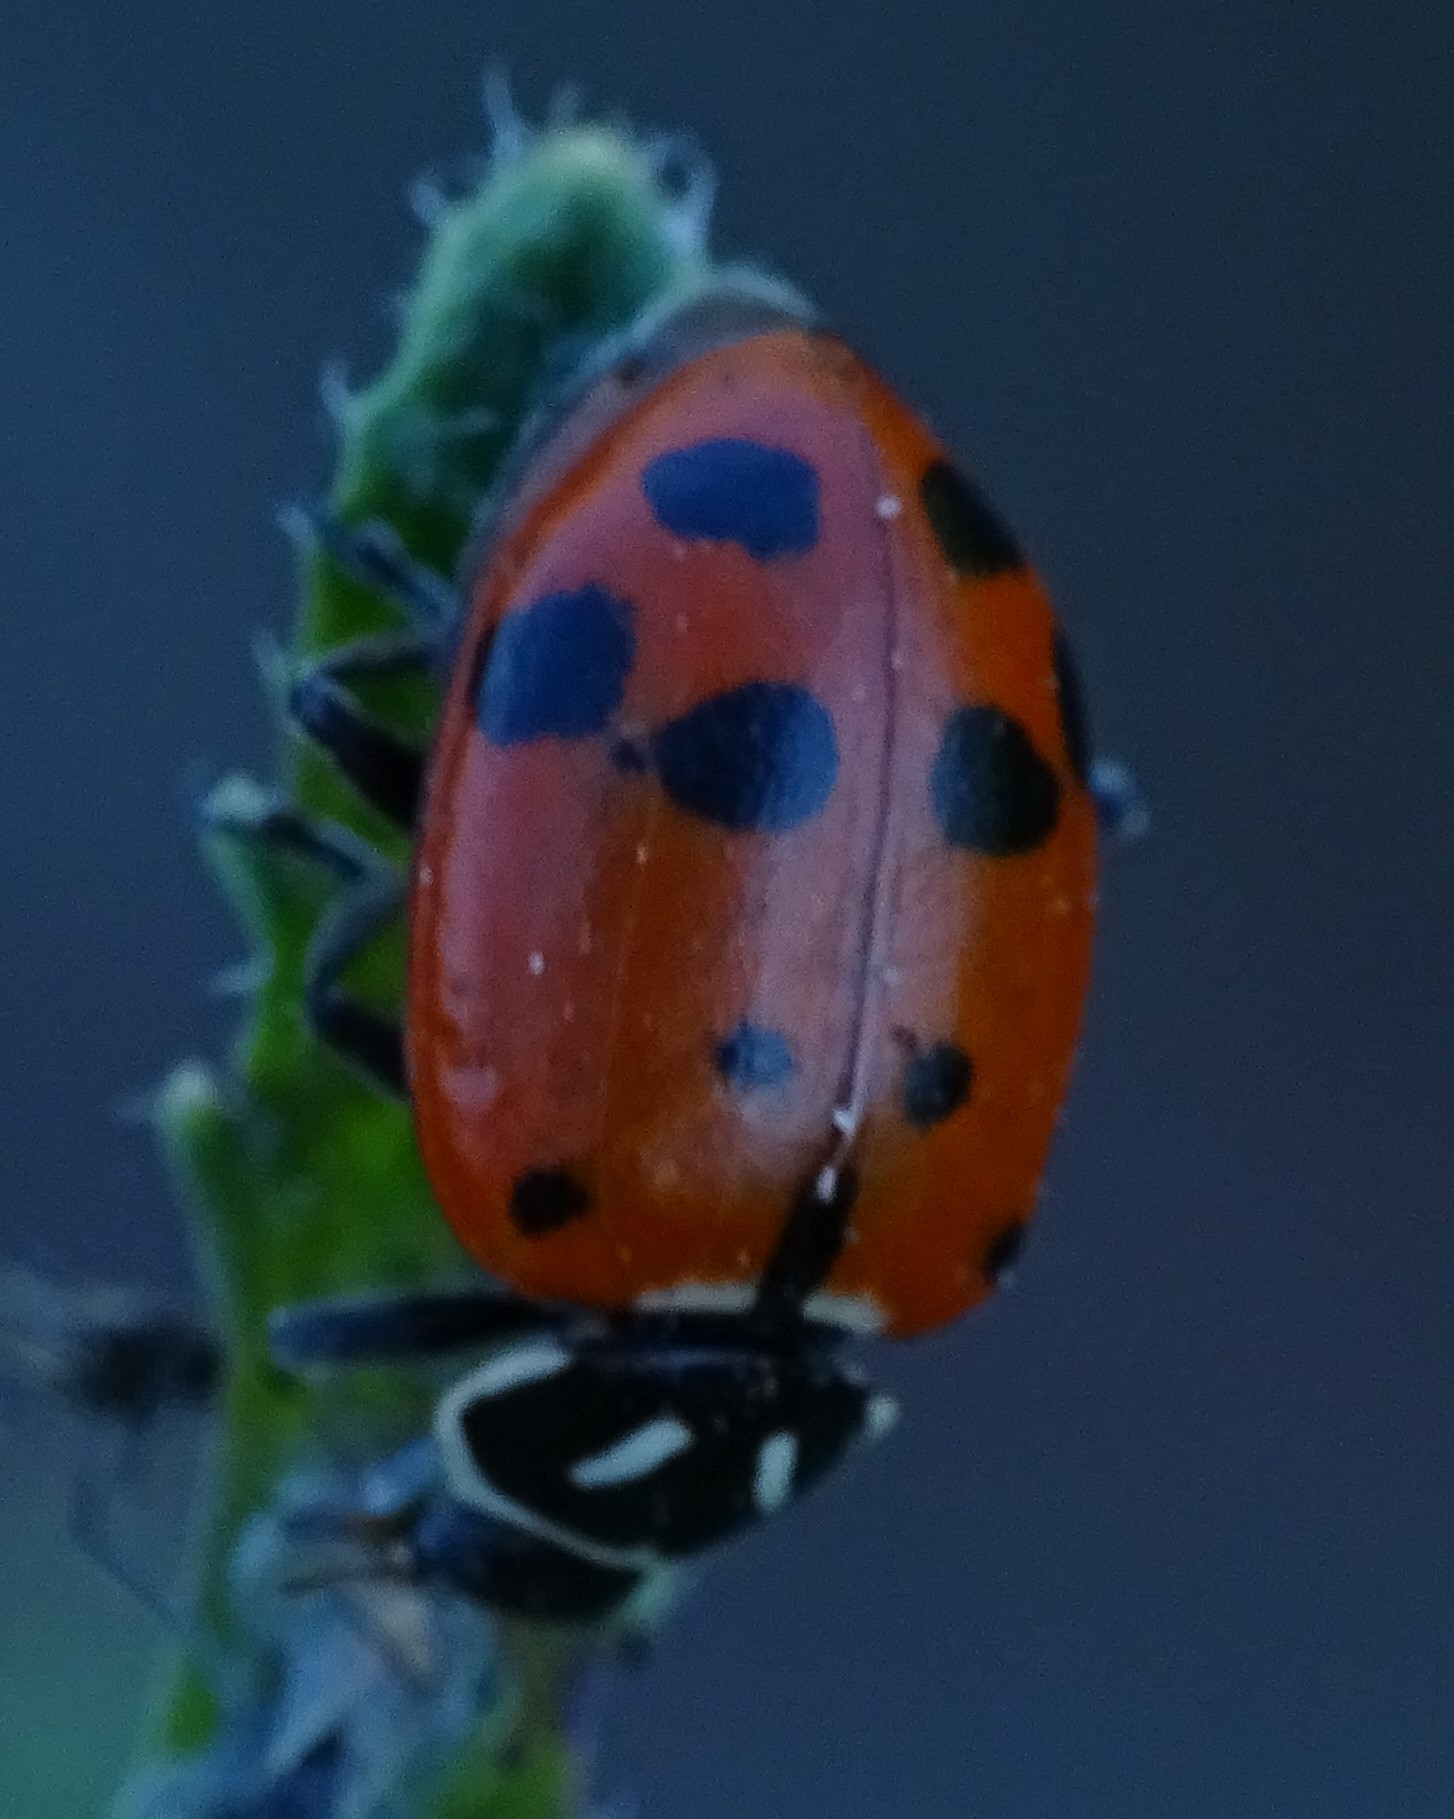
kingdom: Animalia
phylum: Arthropoda
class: Insecta
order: Coleoptera
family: Coccinellidae
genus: Hippodamia
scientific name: Hippodamia convergens
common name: Convergent lady beetle
